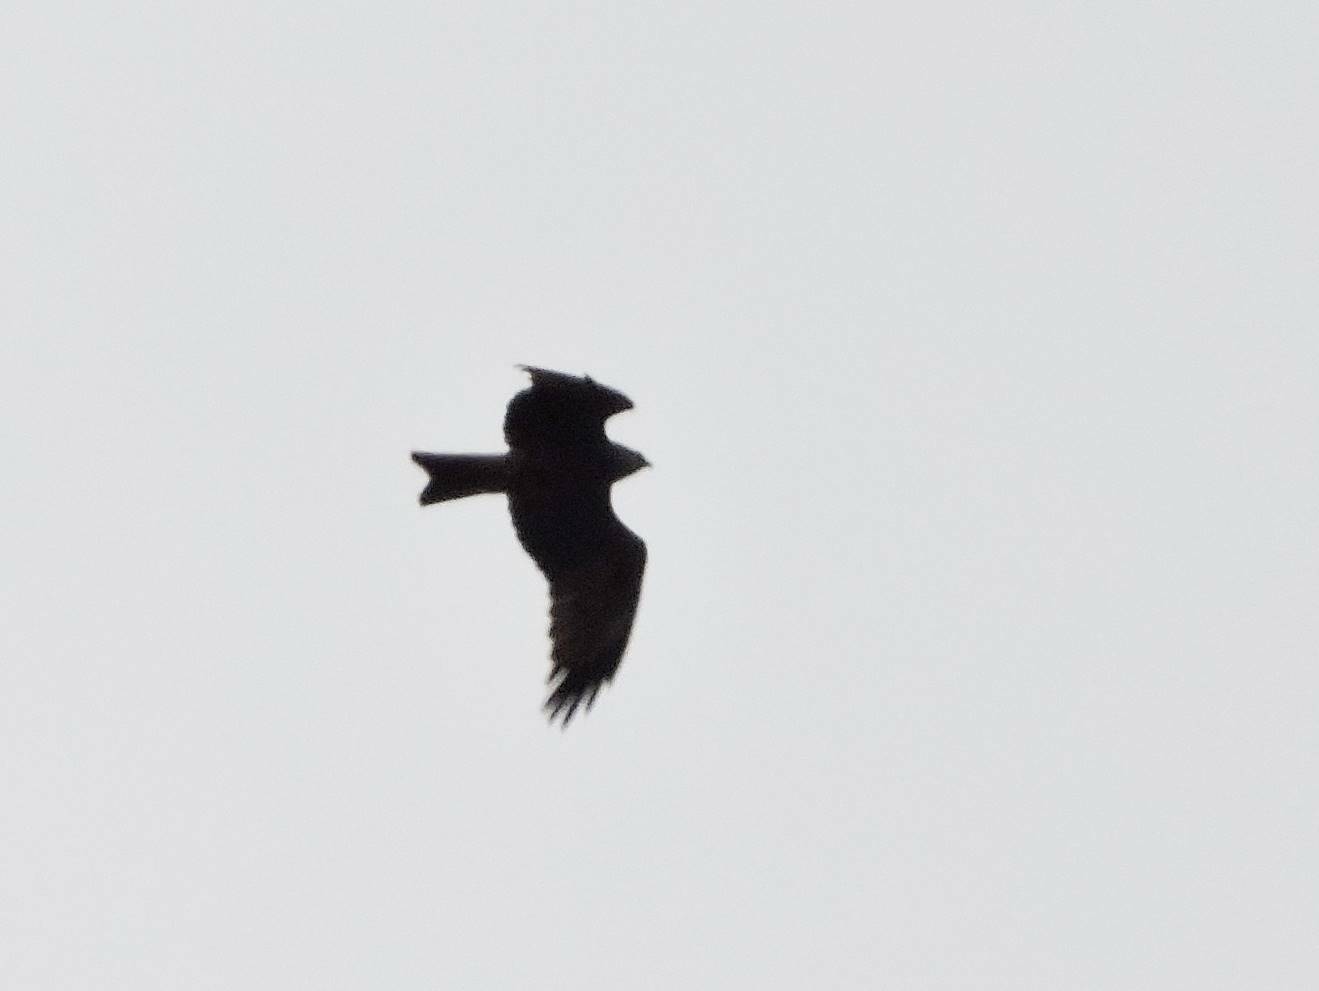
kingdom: Animalia
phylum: Chordata
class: Aves
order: Accipitriformes
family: Accipitridae
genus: Milvus
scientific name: Milvus migrans
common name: Black kite
